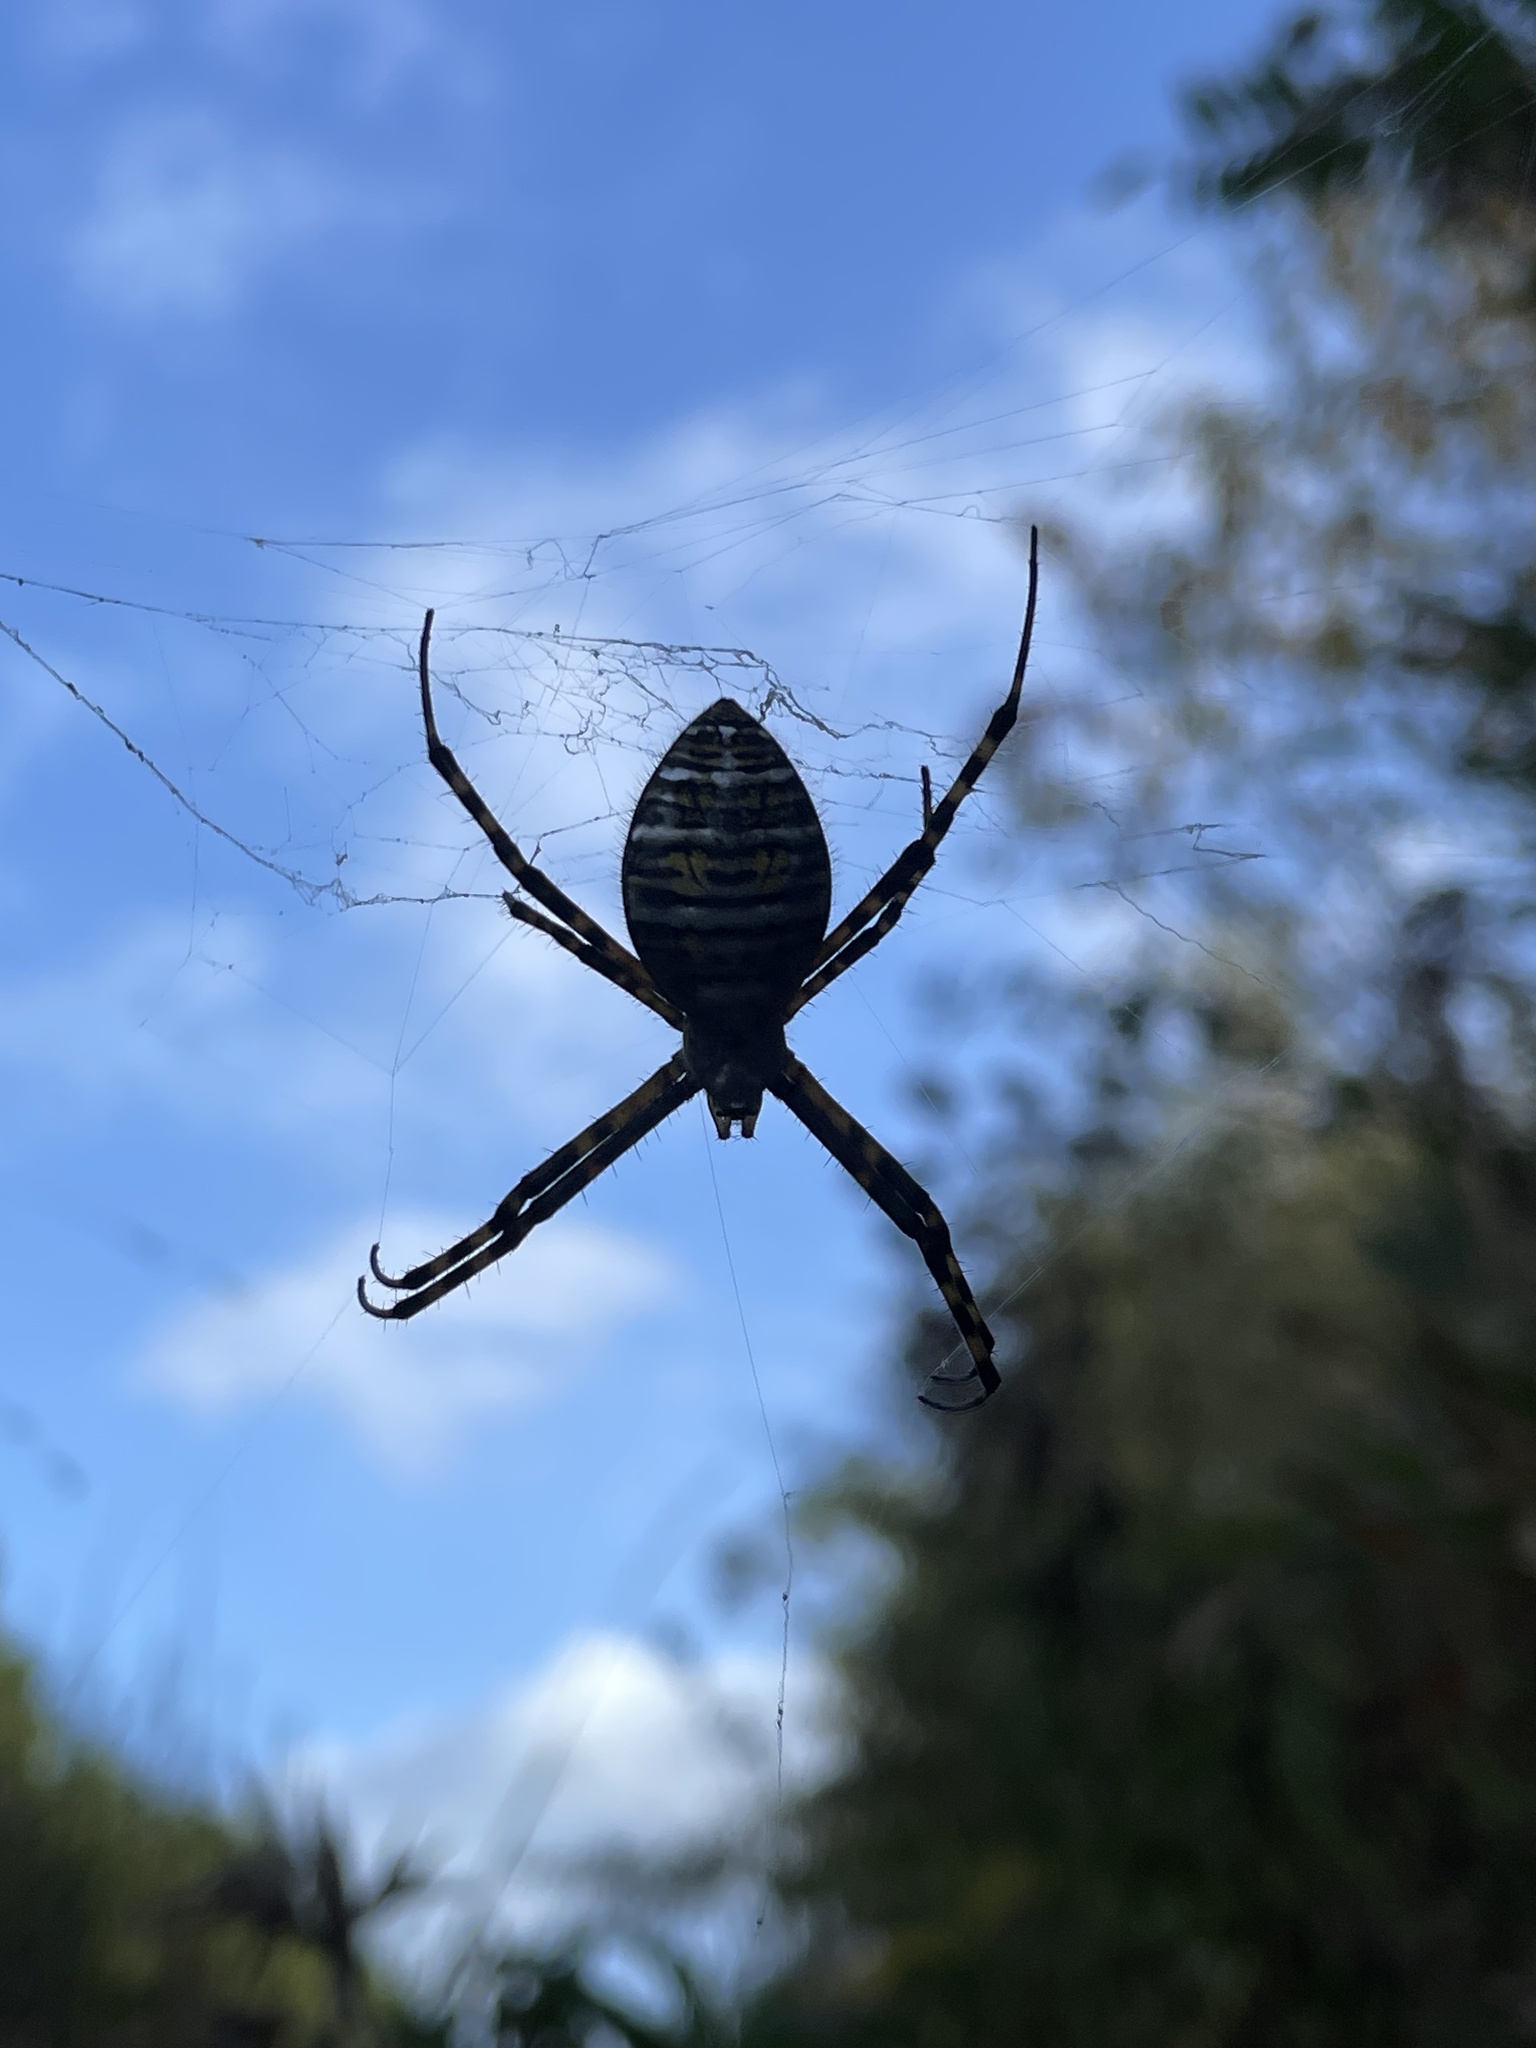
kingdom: Animalia
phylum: Arthropoda
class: Arachnida
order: Araneae
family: Araneidae
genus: Argiope
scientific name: Argiope trifasciata
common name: Banded garden spider
